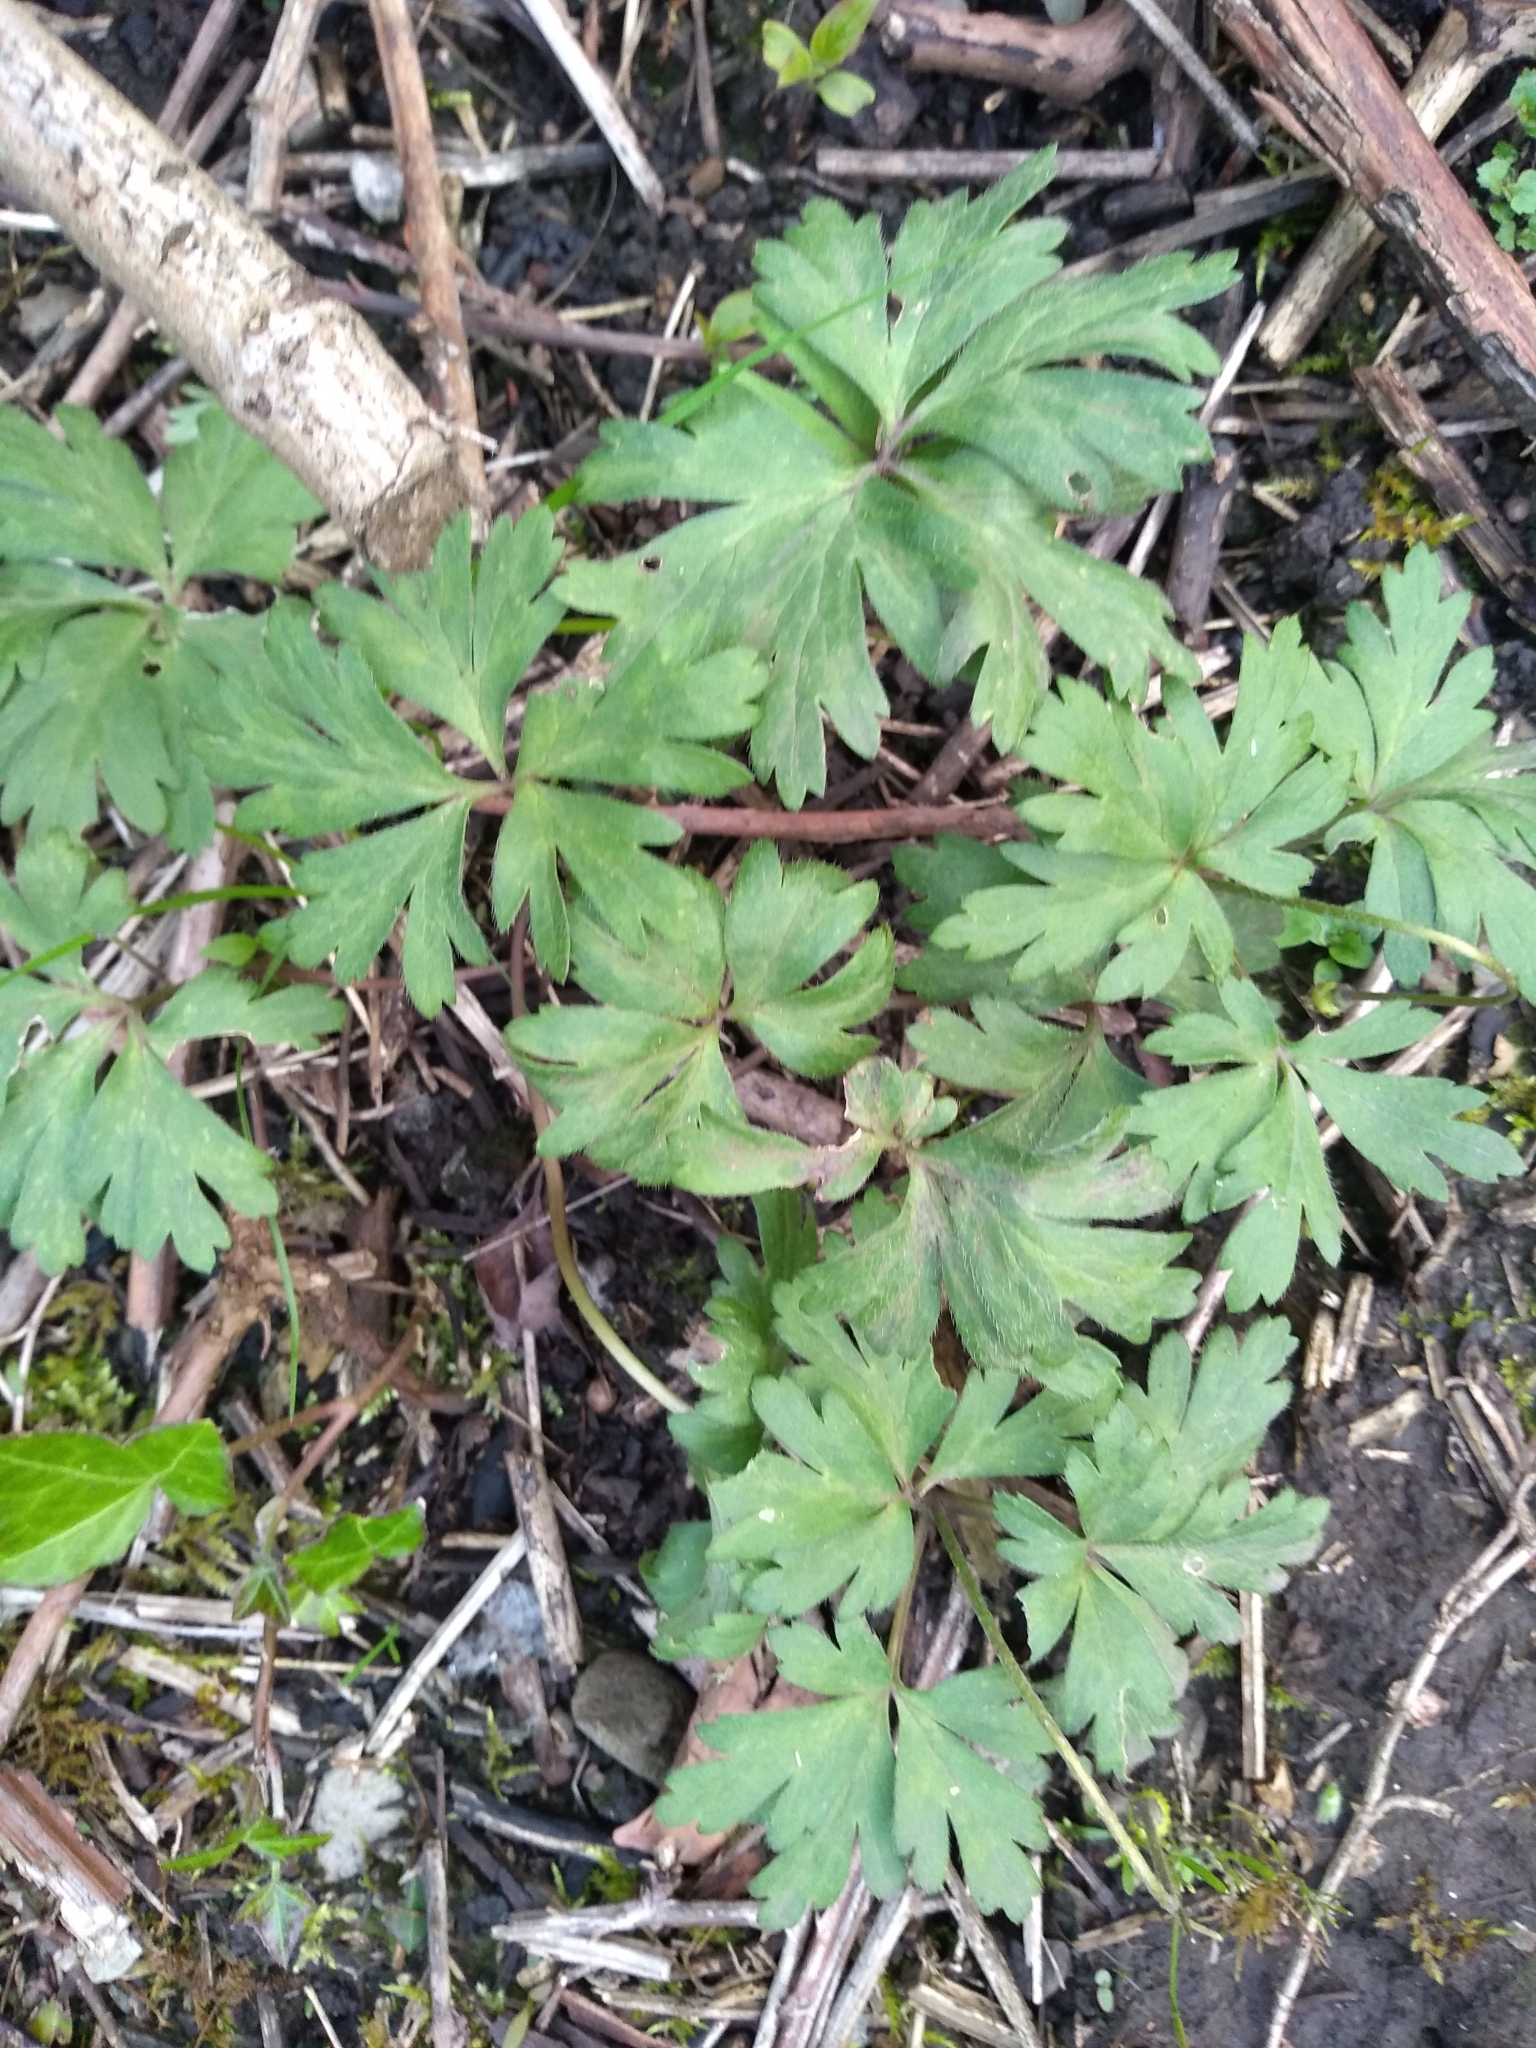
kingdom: Plantae
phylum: Tracheophyta
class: Magnoliopsida
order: Ranunculales
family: Ranunculaceae
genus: Anemone
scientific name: Anemone nemorosa
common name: Wood anemone
